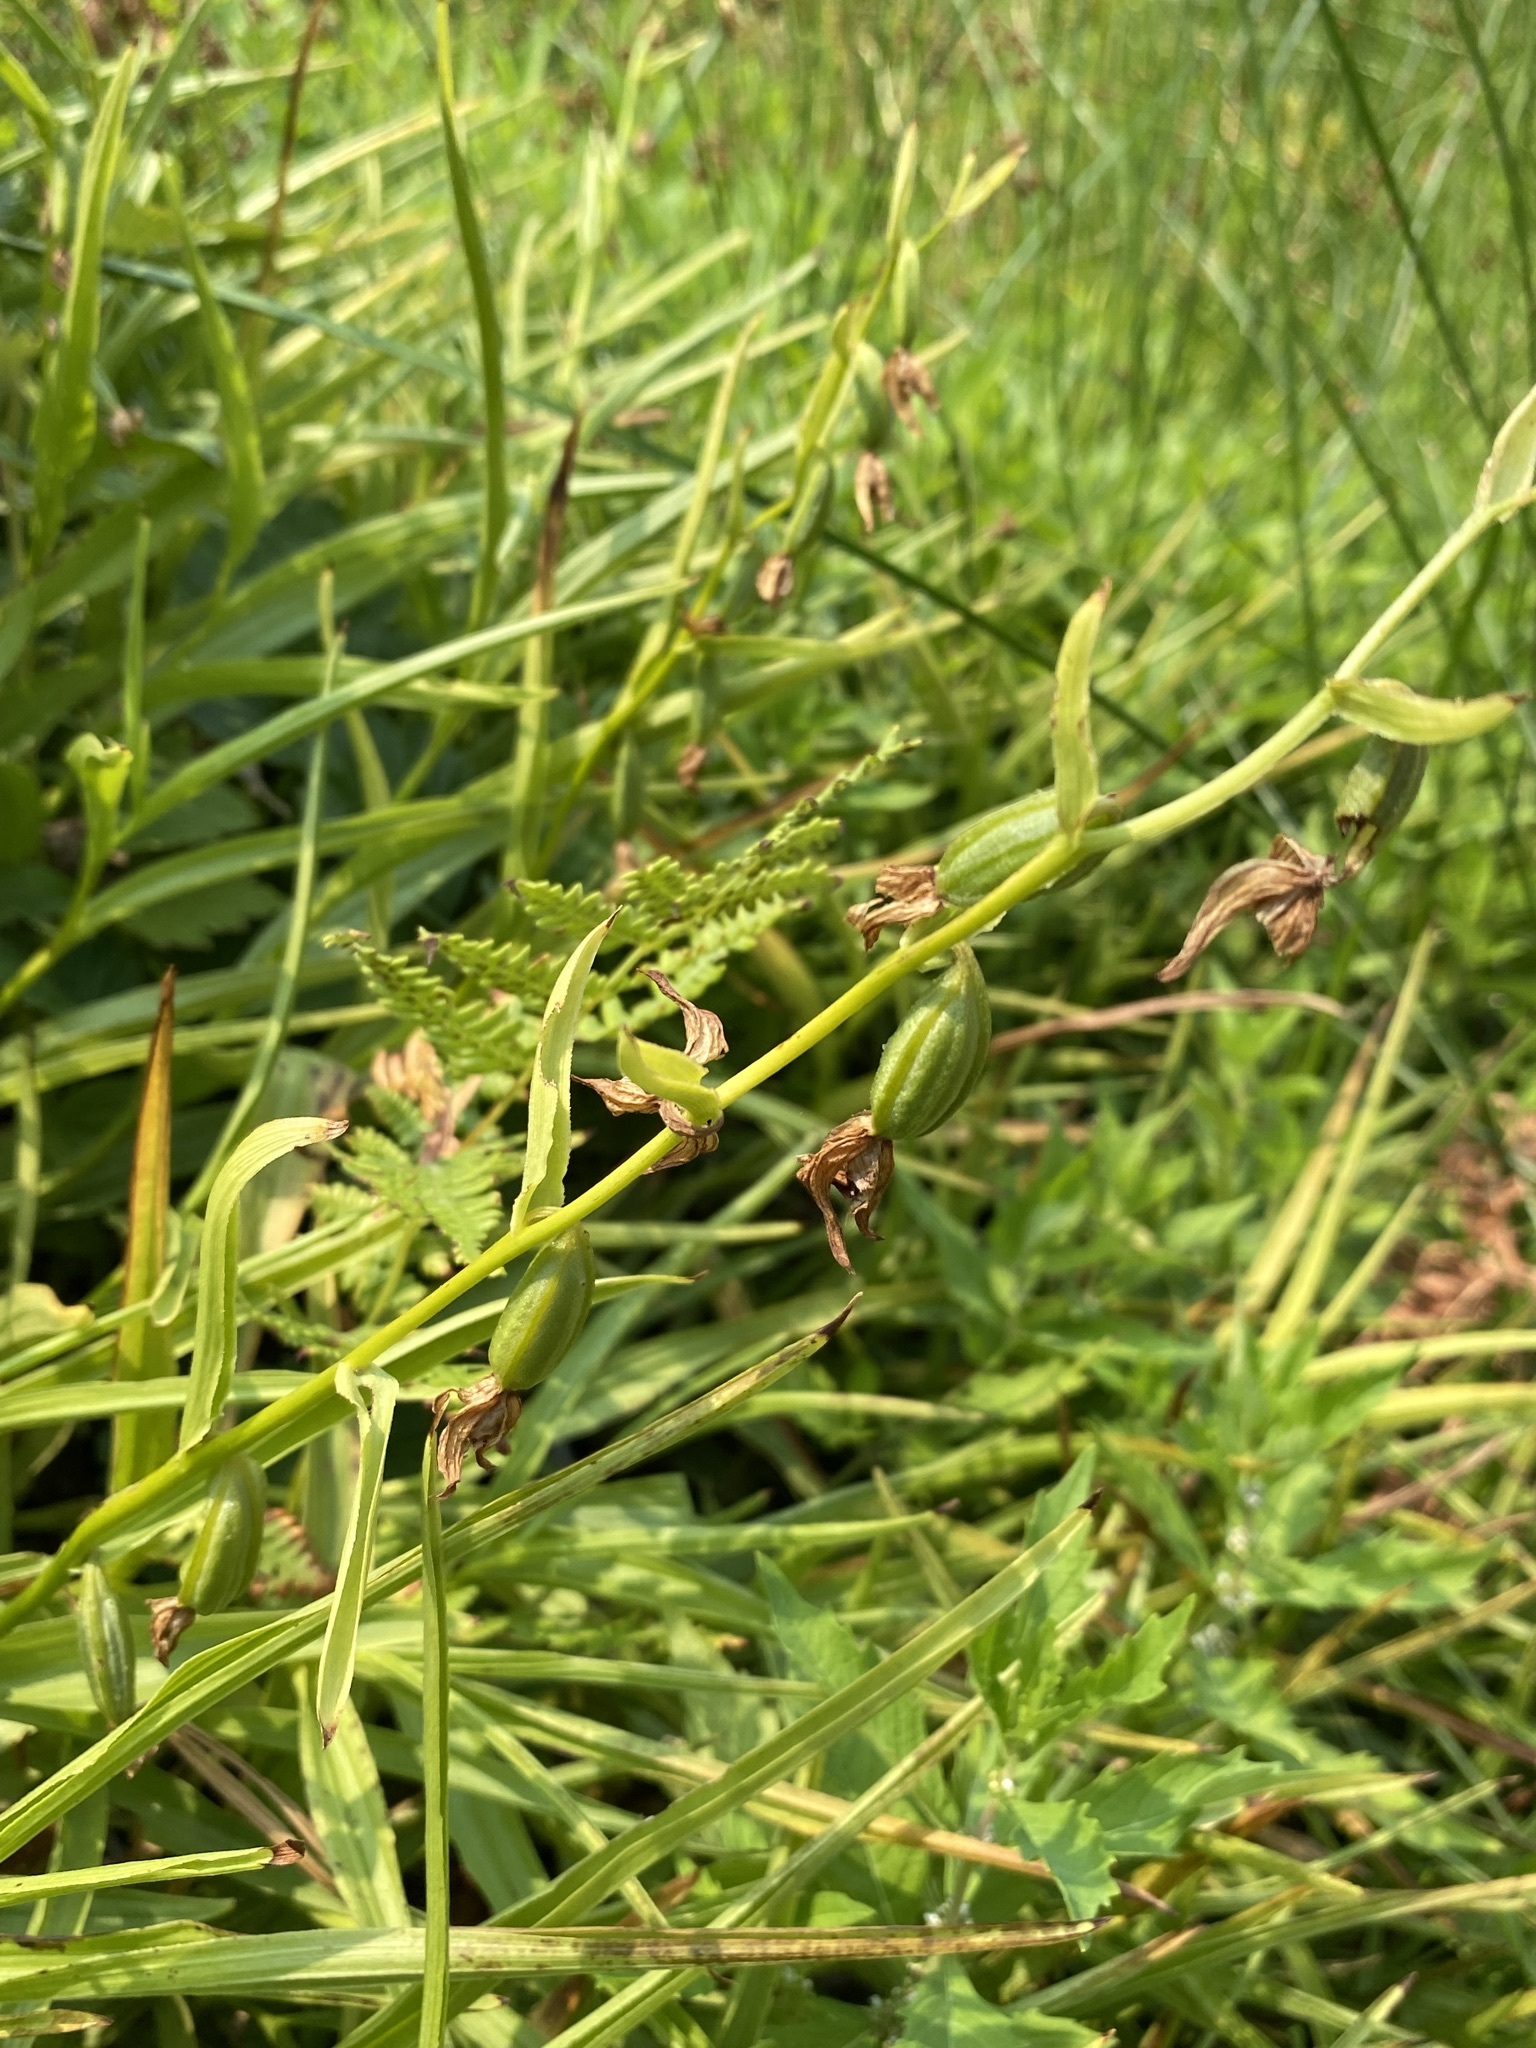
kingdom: Plantae
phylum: Tracheophyta
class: Liliopsida
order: Asparagales
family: Orchidaceae
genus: Epipactis
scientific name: Epipactis gigantea
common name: Chatterbox
